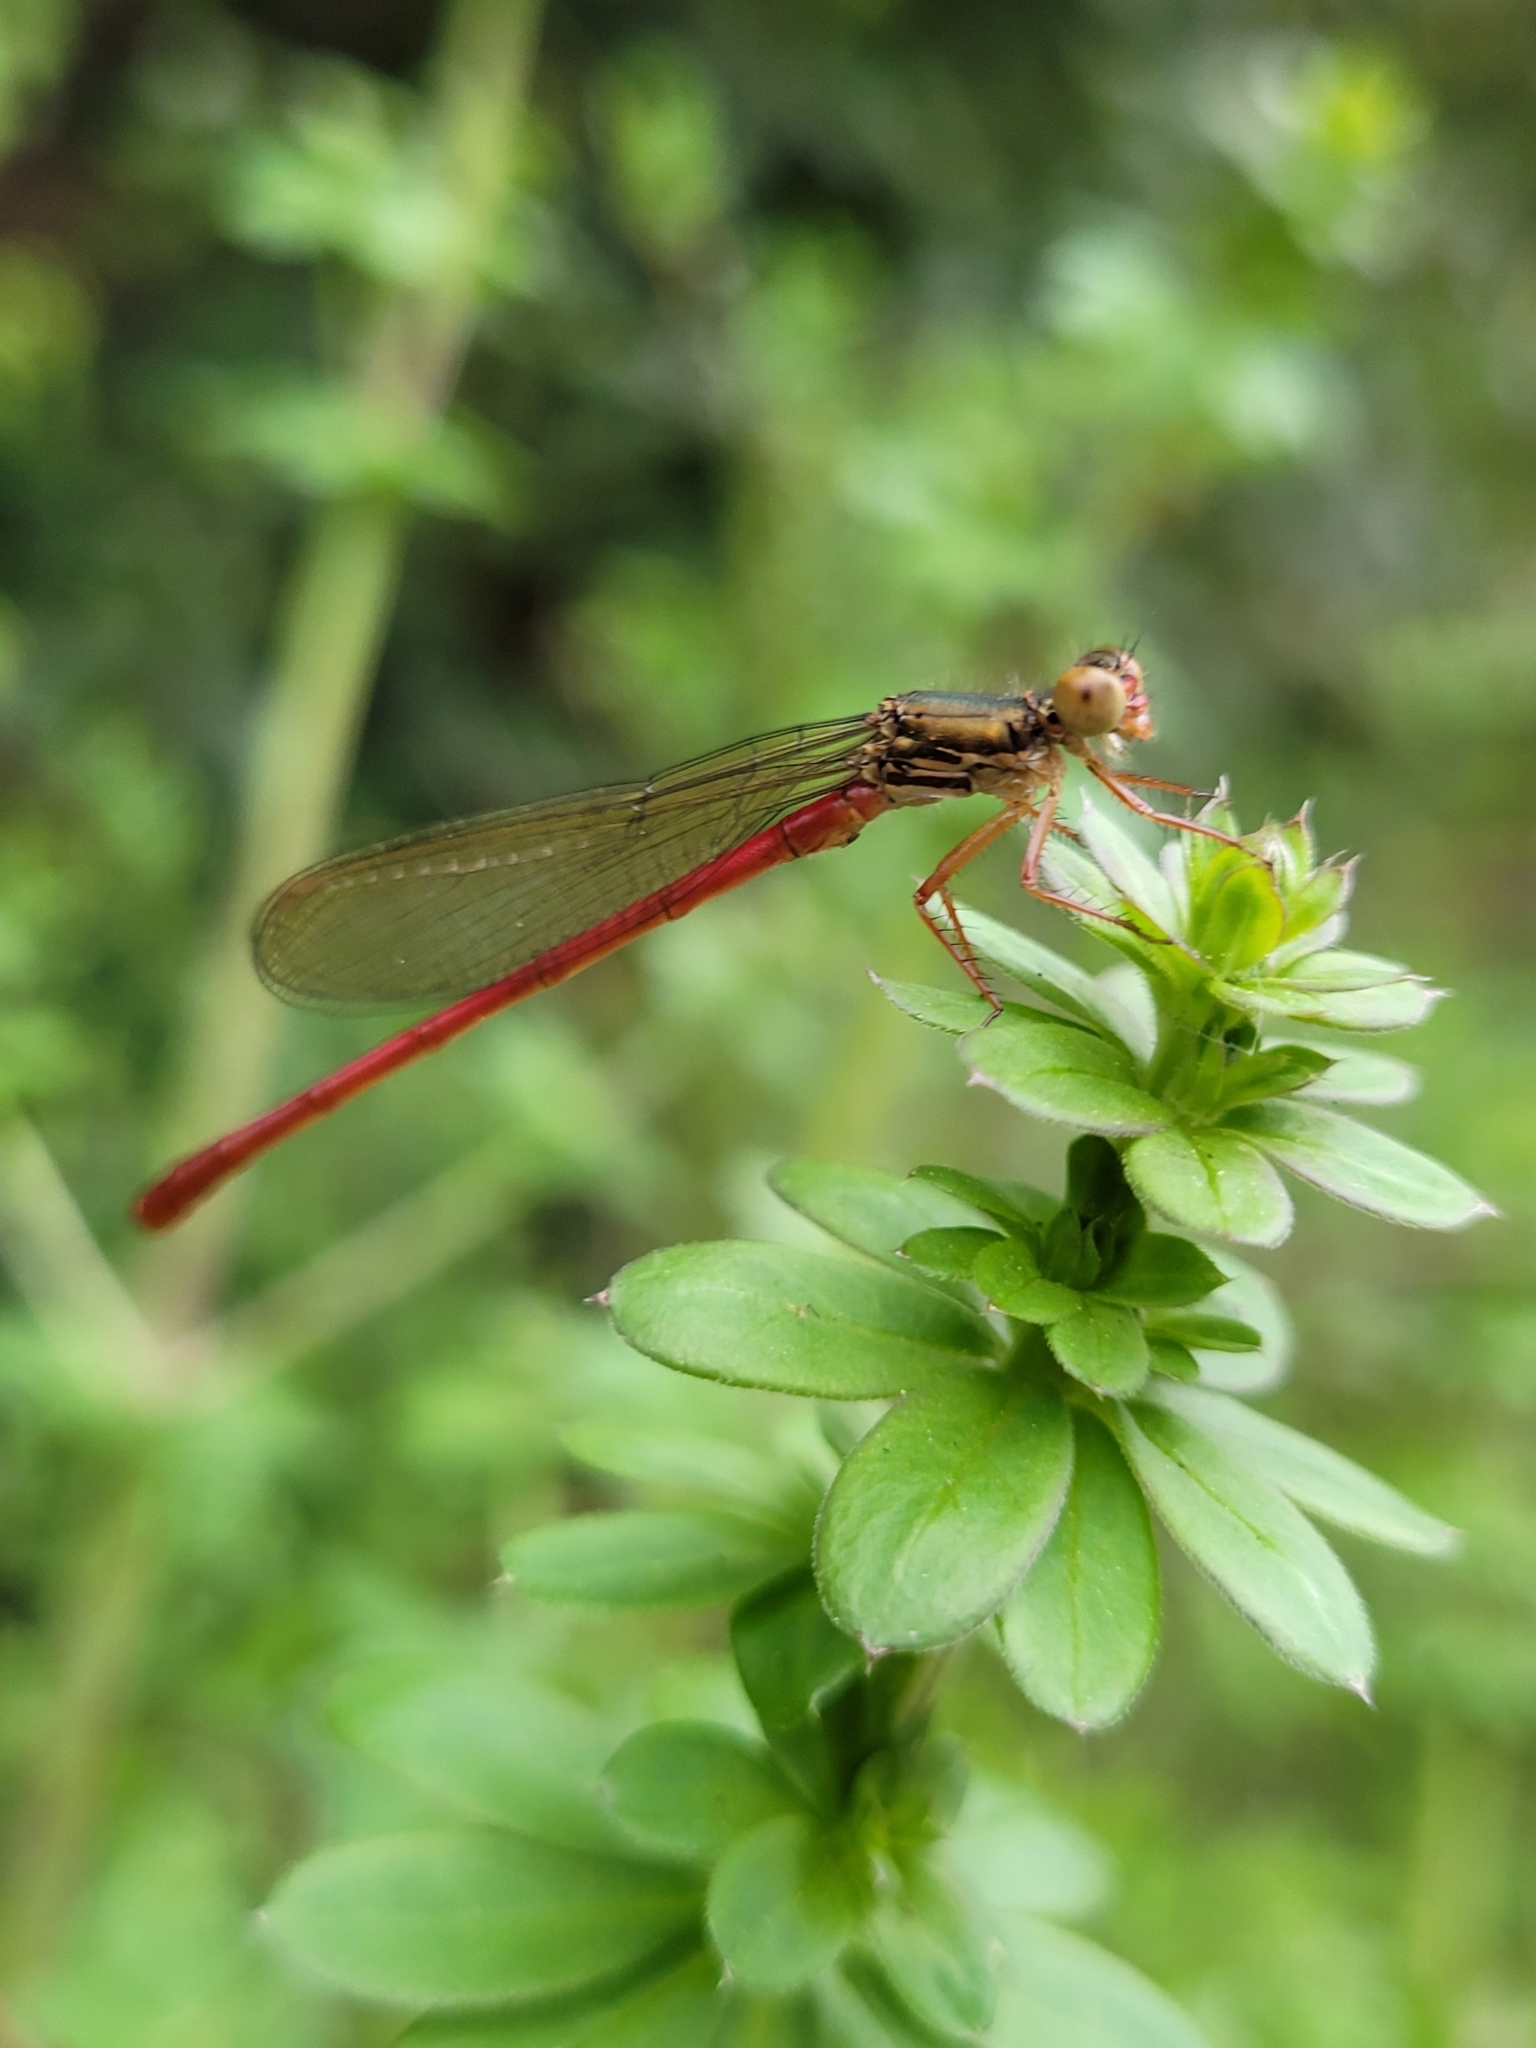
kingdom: Animalia
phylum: Arthropoda
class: Insecta
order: Odonata
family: Coenagrionidae
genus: Ceriagrion
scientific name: Ceriagrion tenellum
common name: Small red damselfly
